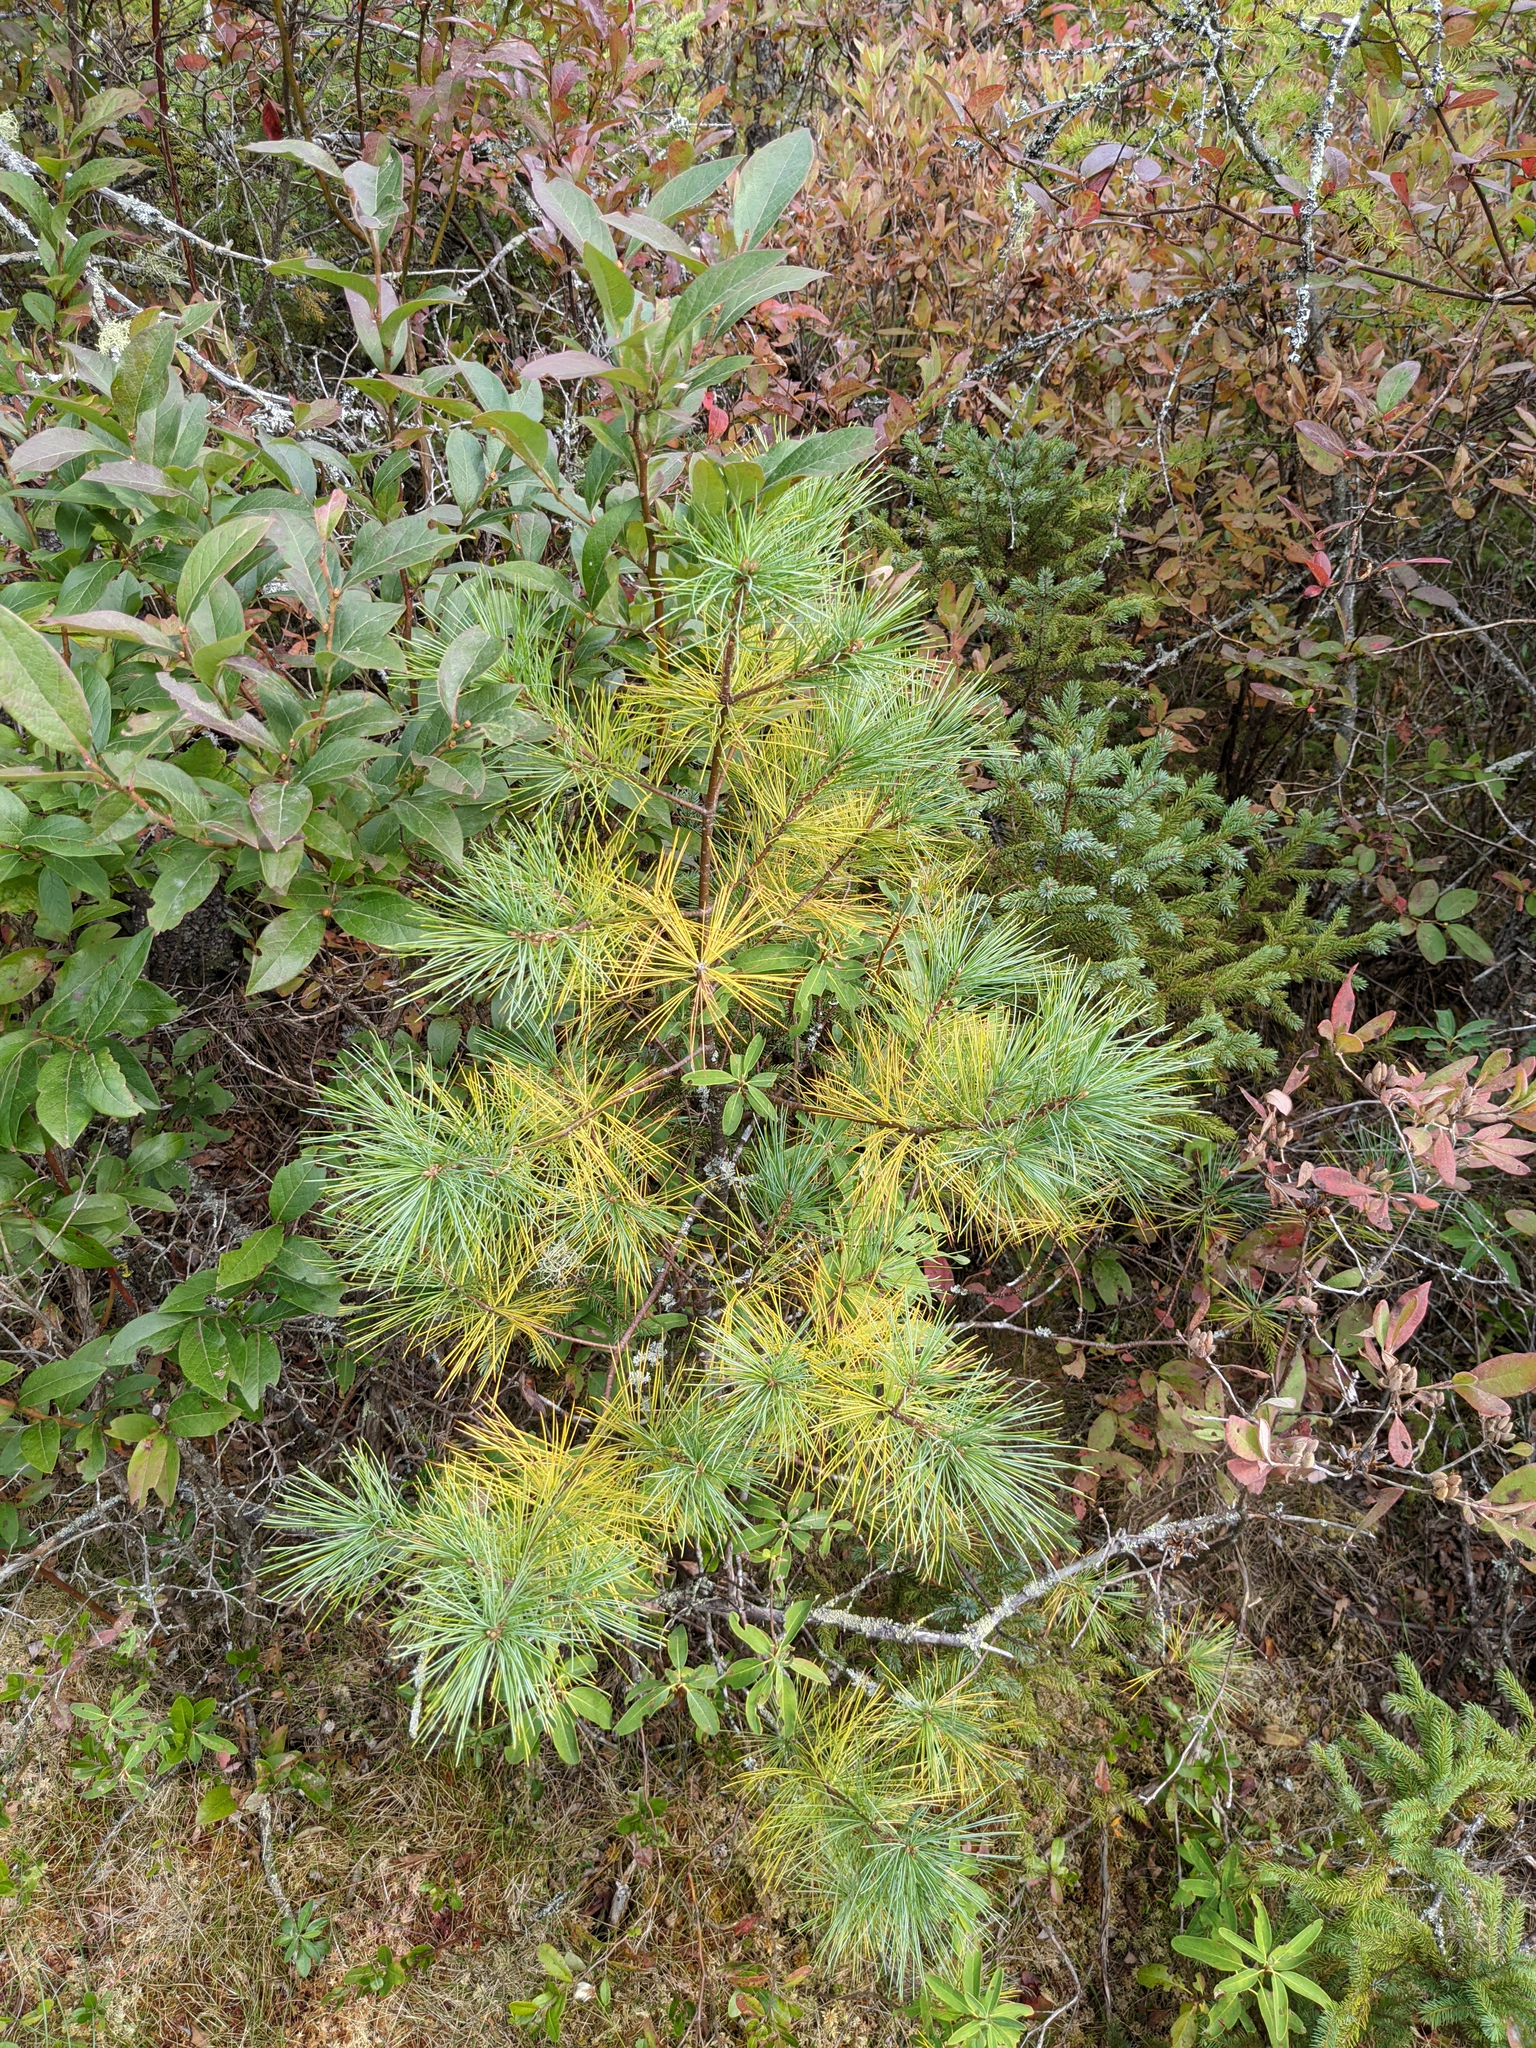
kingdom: Plantae
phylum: Tracheophyta
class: Pinopsida
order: Pinales
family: Pinaceae
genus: Pinus
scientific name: Pinus strobus
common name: Weymouth pine
